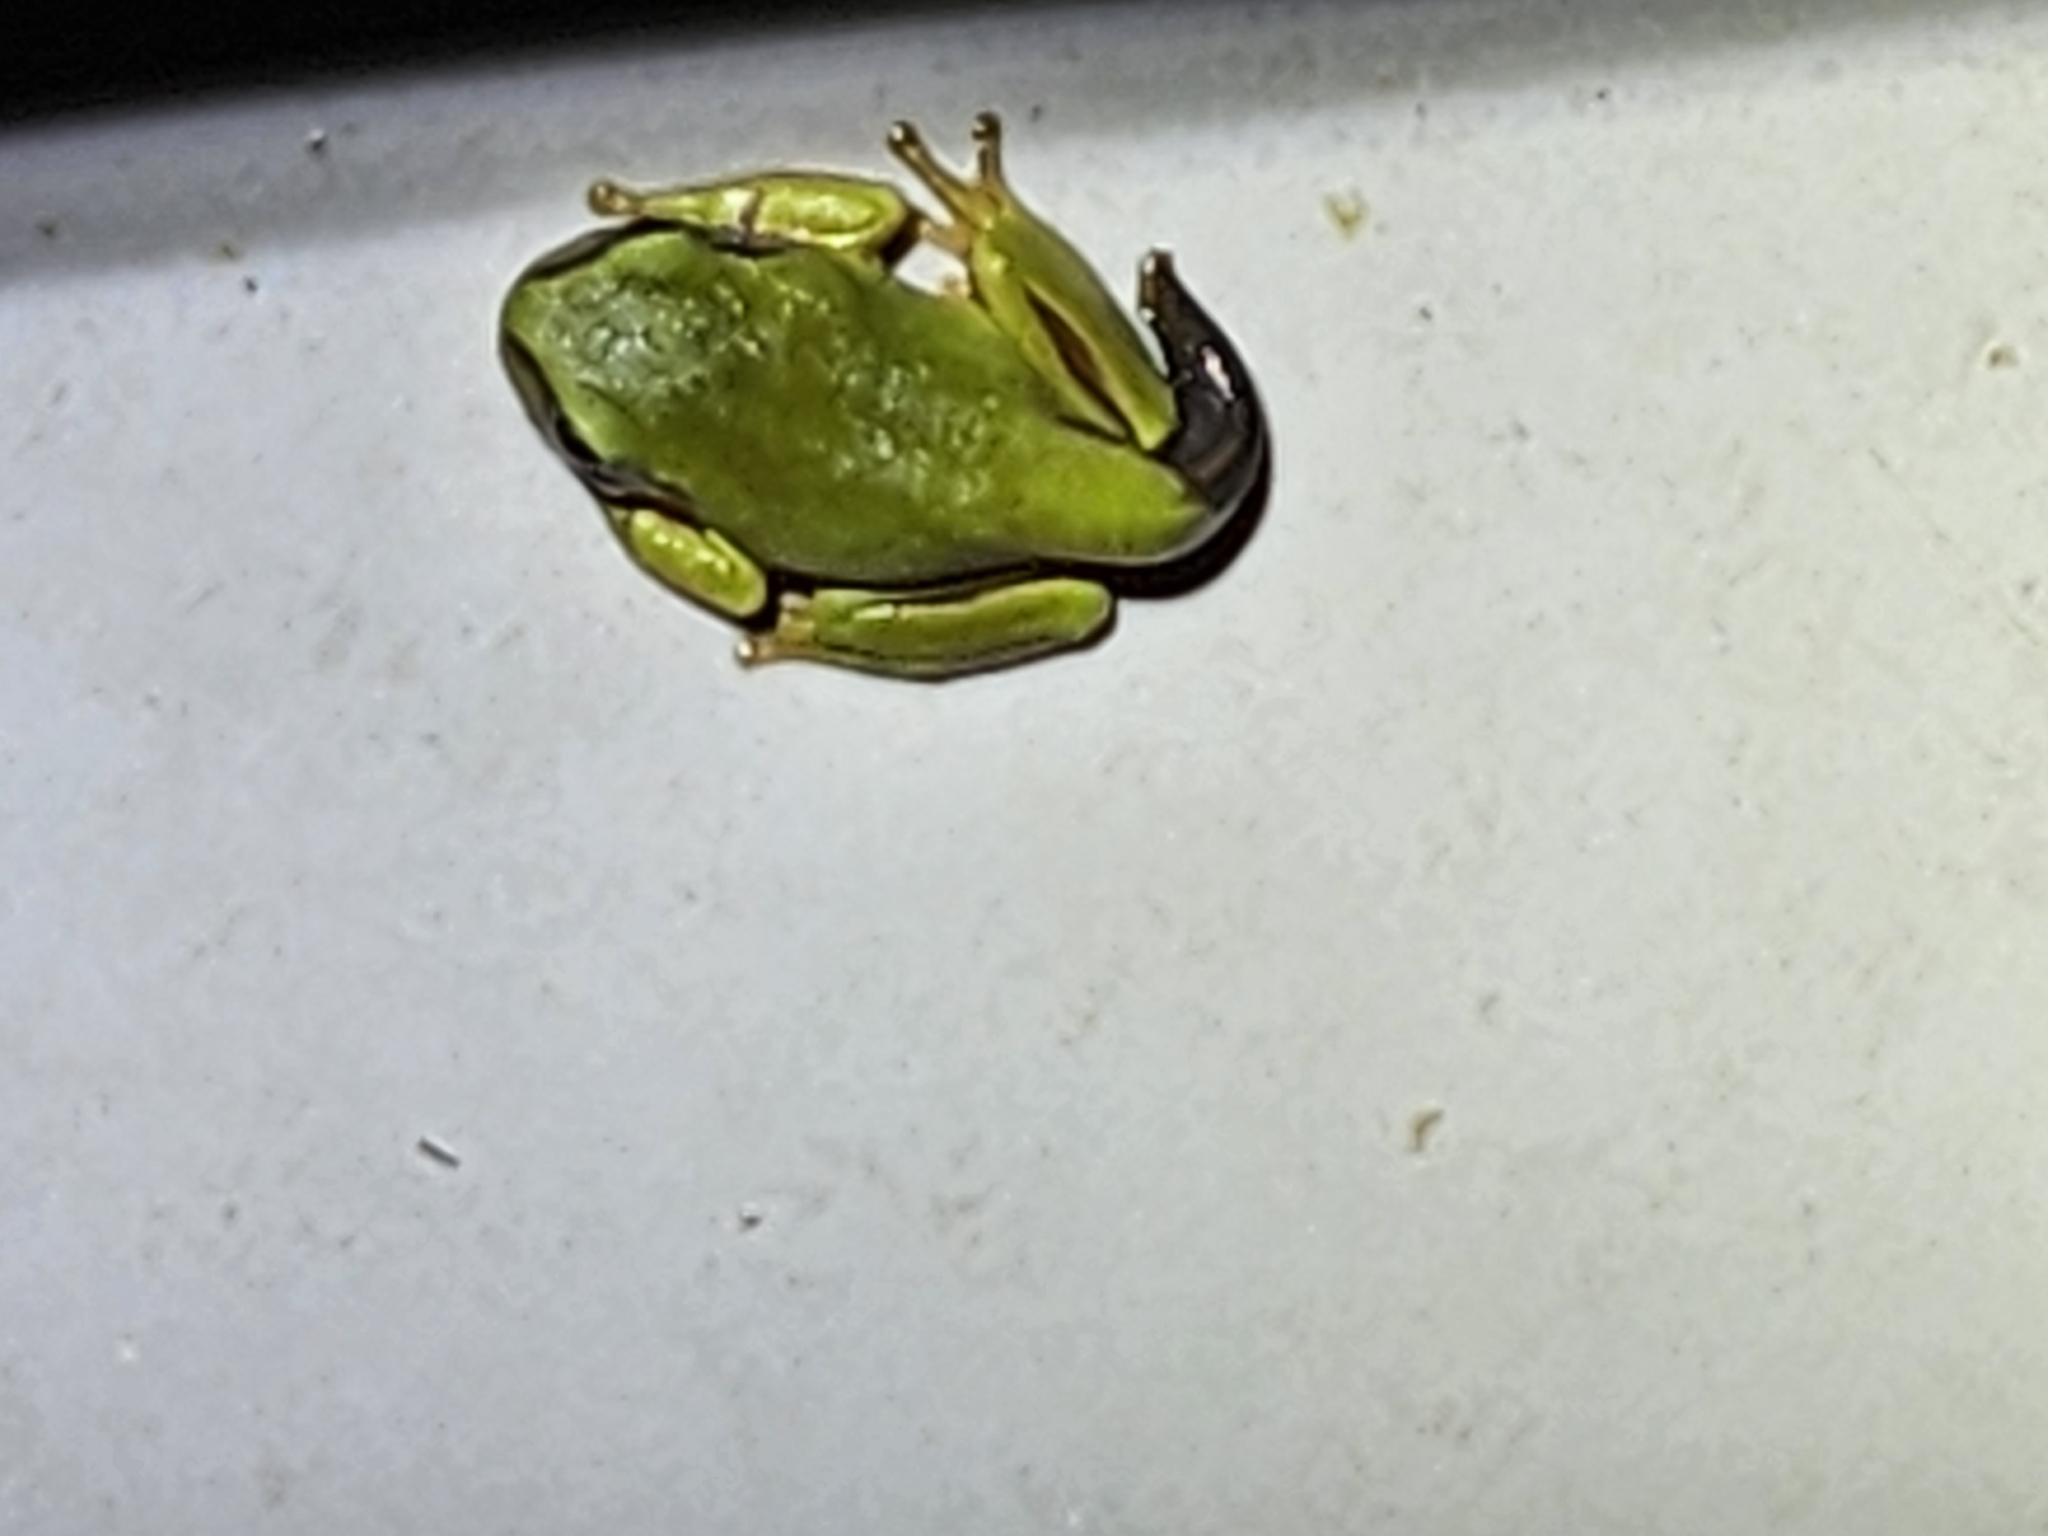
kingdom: Animalia
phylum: Chordata
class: Amphibia
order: Anura
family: Pelodryadidae
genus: Ranoidea
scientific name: Ranoidea caerulea
